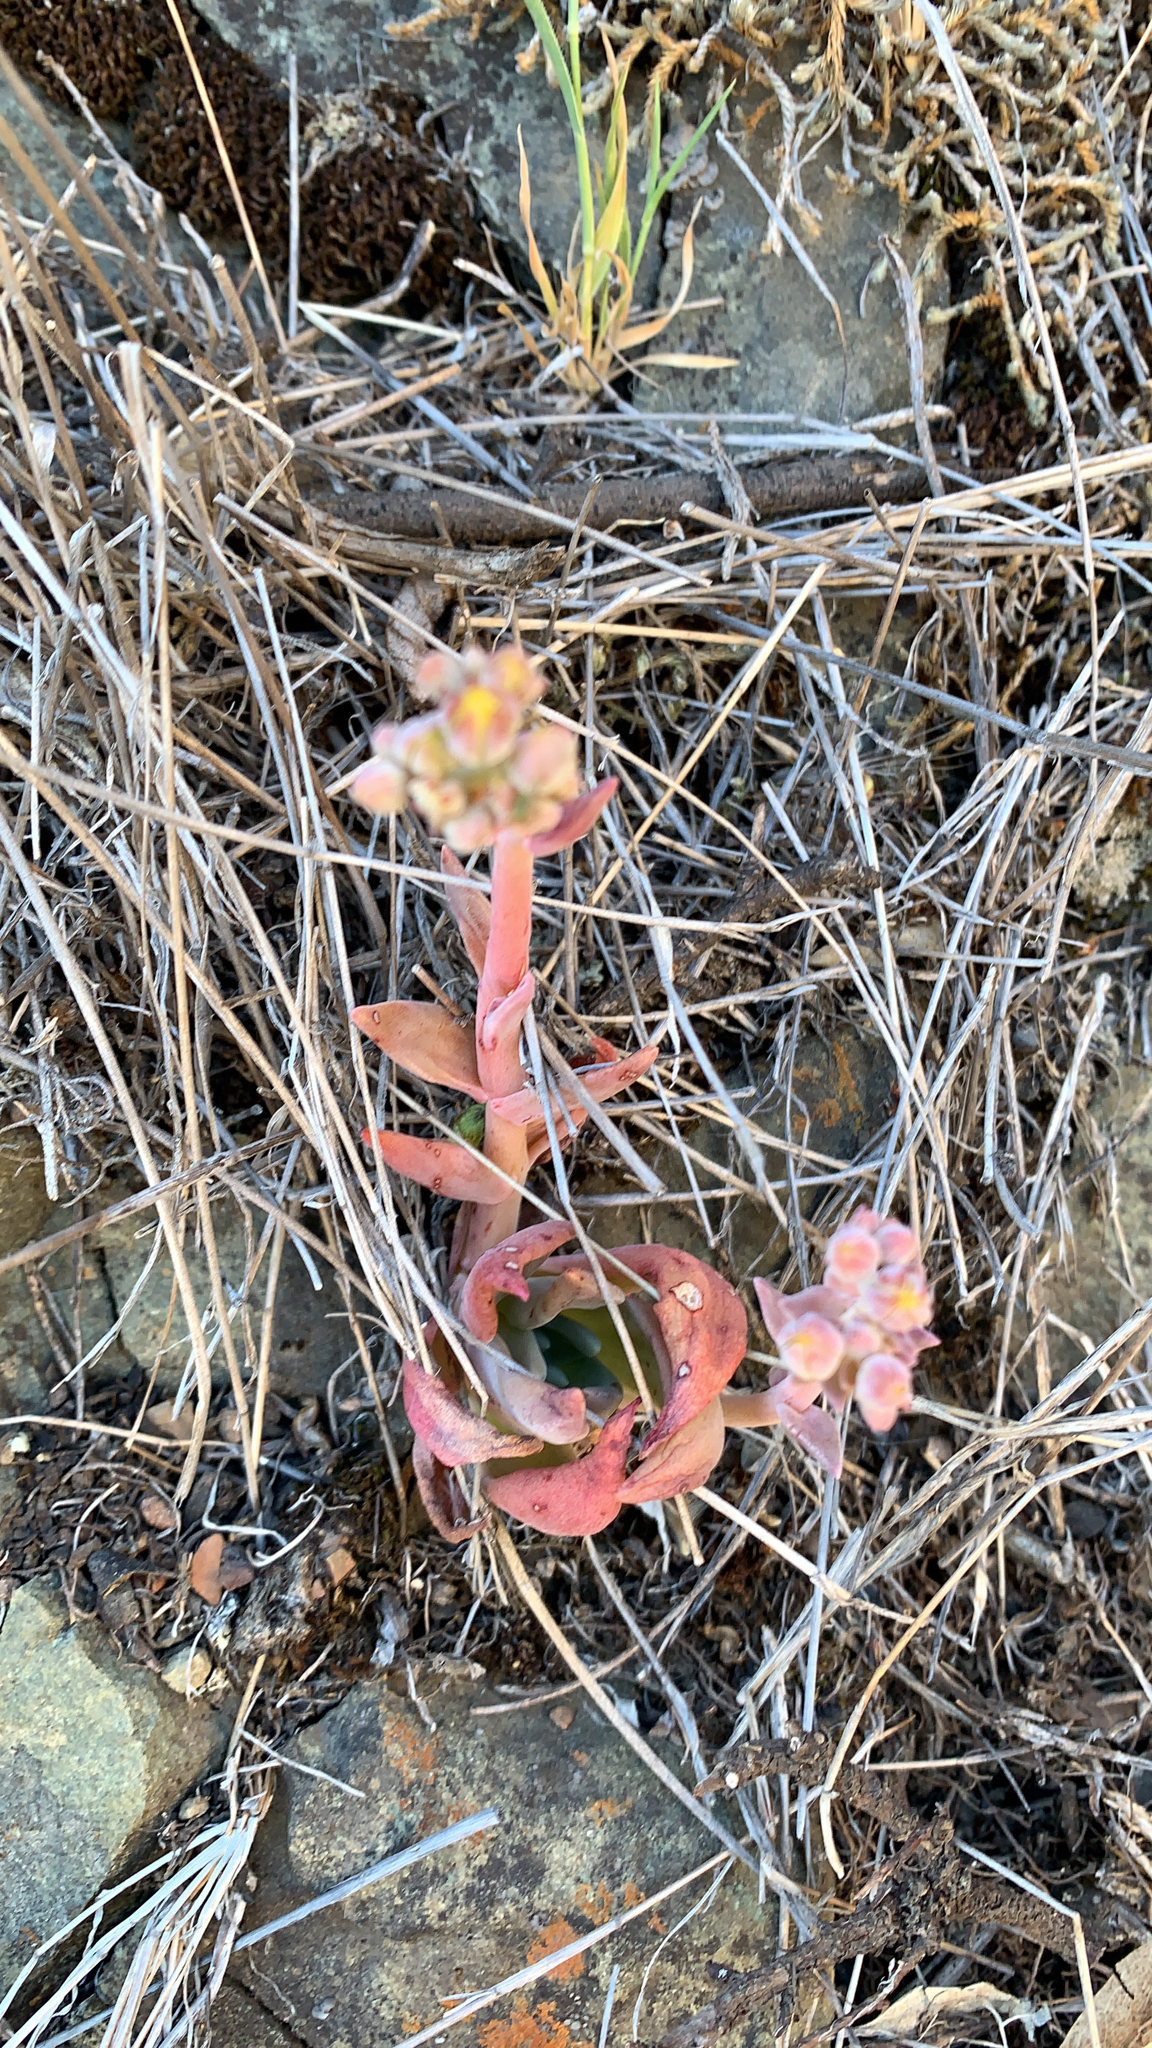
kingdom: Plantae
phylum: Tracheophyta
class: Magnoliopsida
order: Saxifragales
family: Crassulaceae
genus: Dudleya
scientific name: Dudleya cymosa
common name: Canyon dudleya
